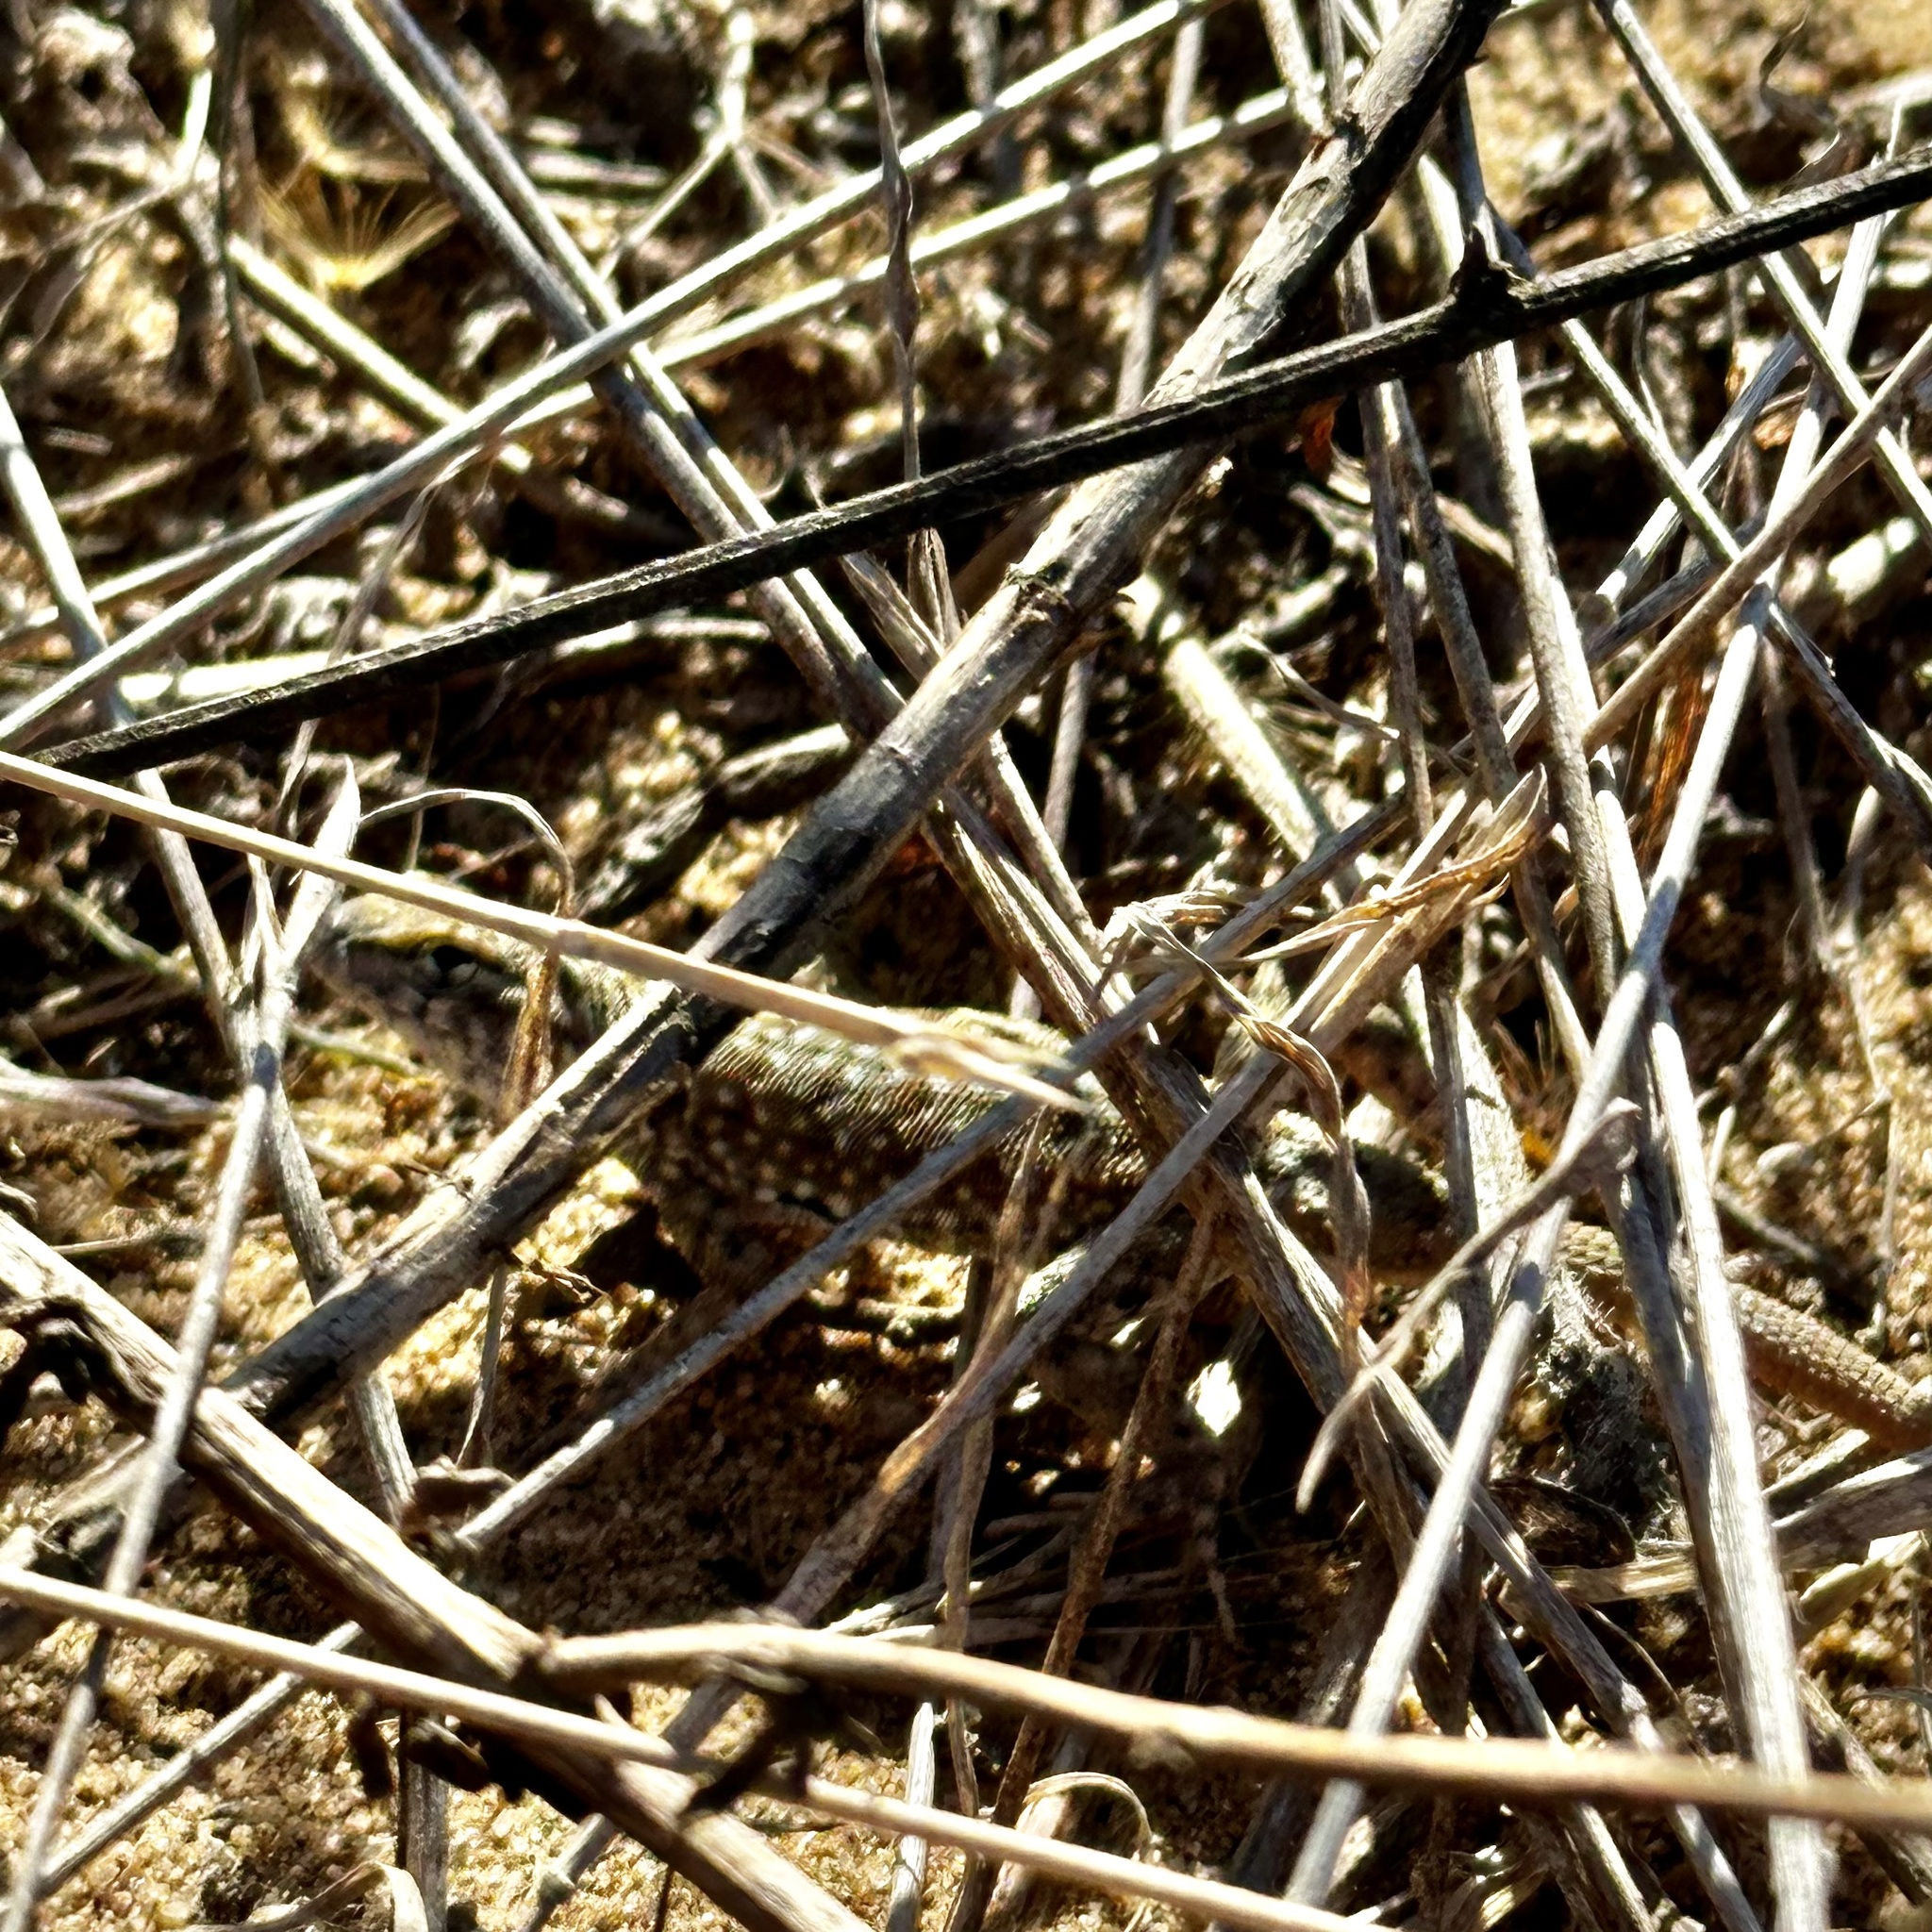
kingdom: Animalia
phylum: Chordata
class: Squamata
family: Phrynosomatidae
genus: Uta
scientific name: Uta stansburiana
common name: Side-blotched lizard
